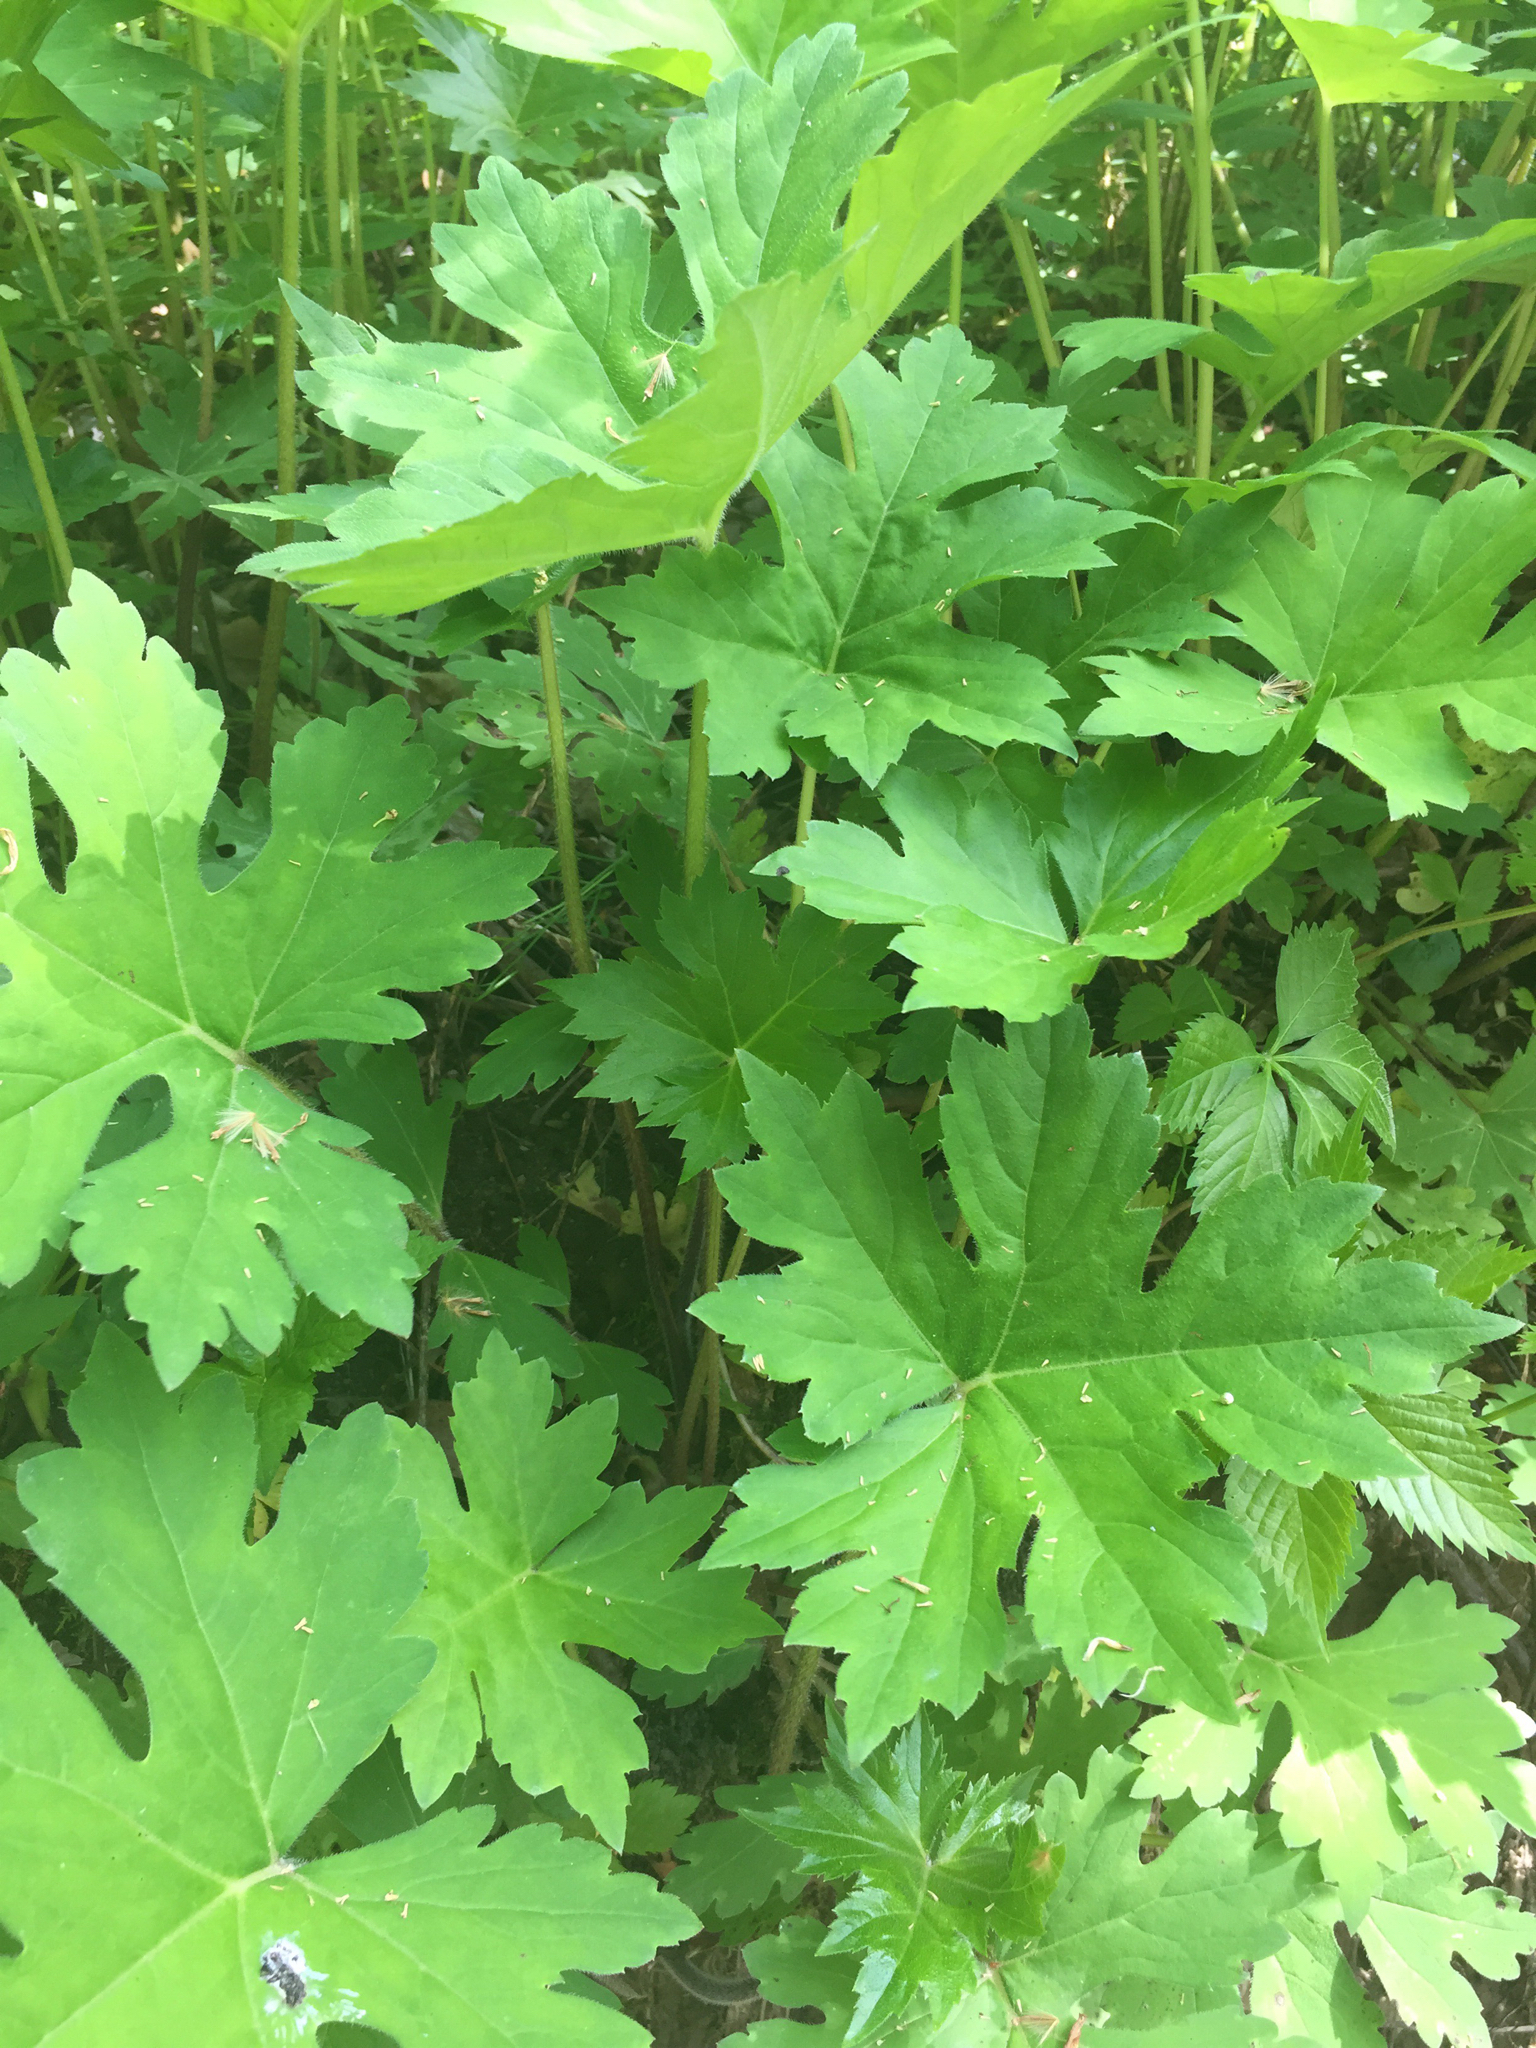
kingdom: Plantae
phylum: Tracheophyta
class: Magnoliopsida
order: Boraginales
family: Hydrophyllaceae
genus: Hydrophyllum
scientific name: Hydrophyllum canadense
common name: Canada waterleaf
